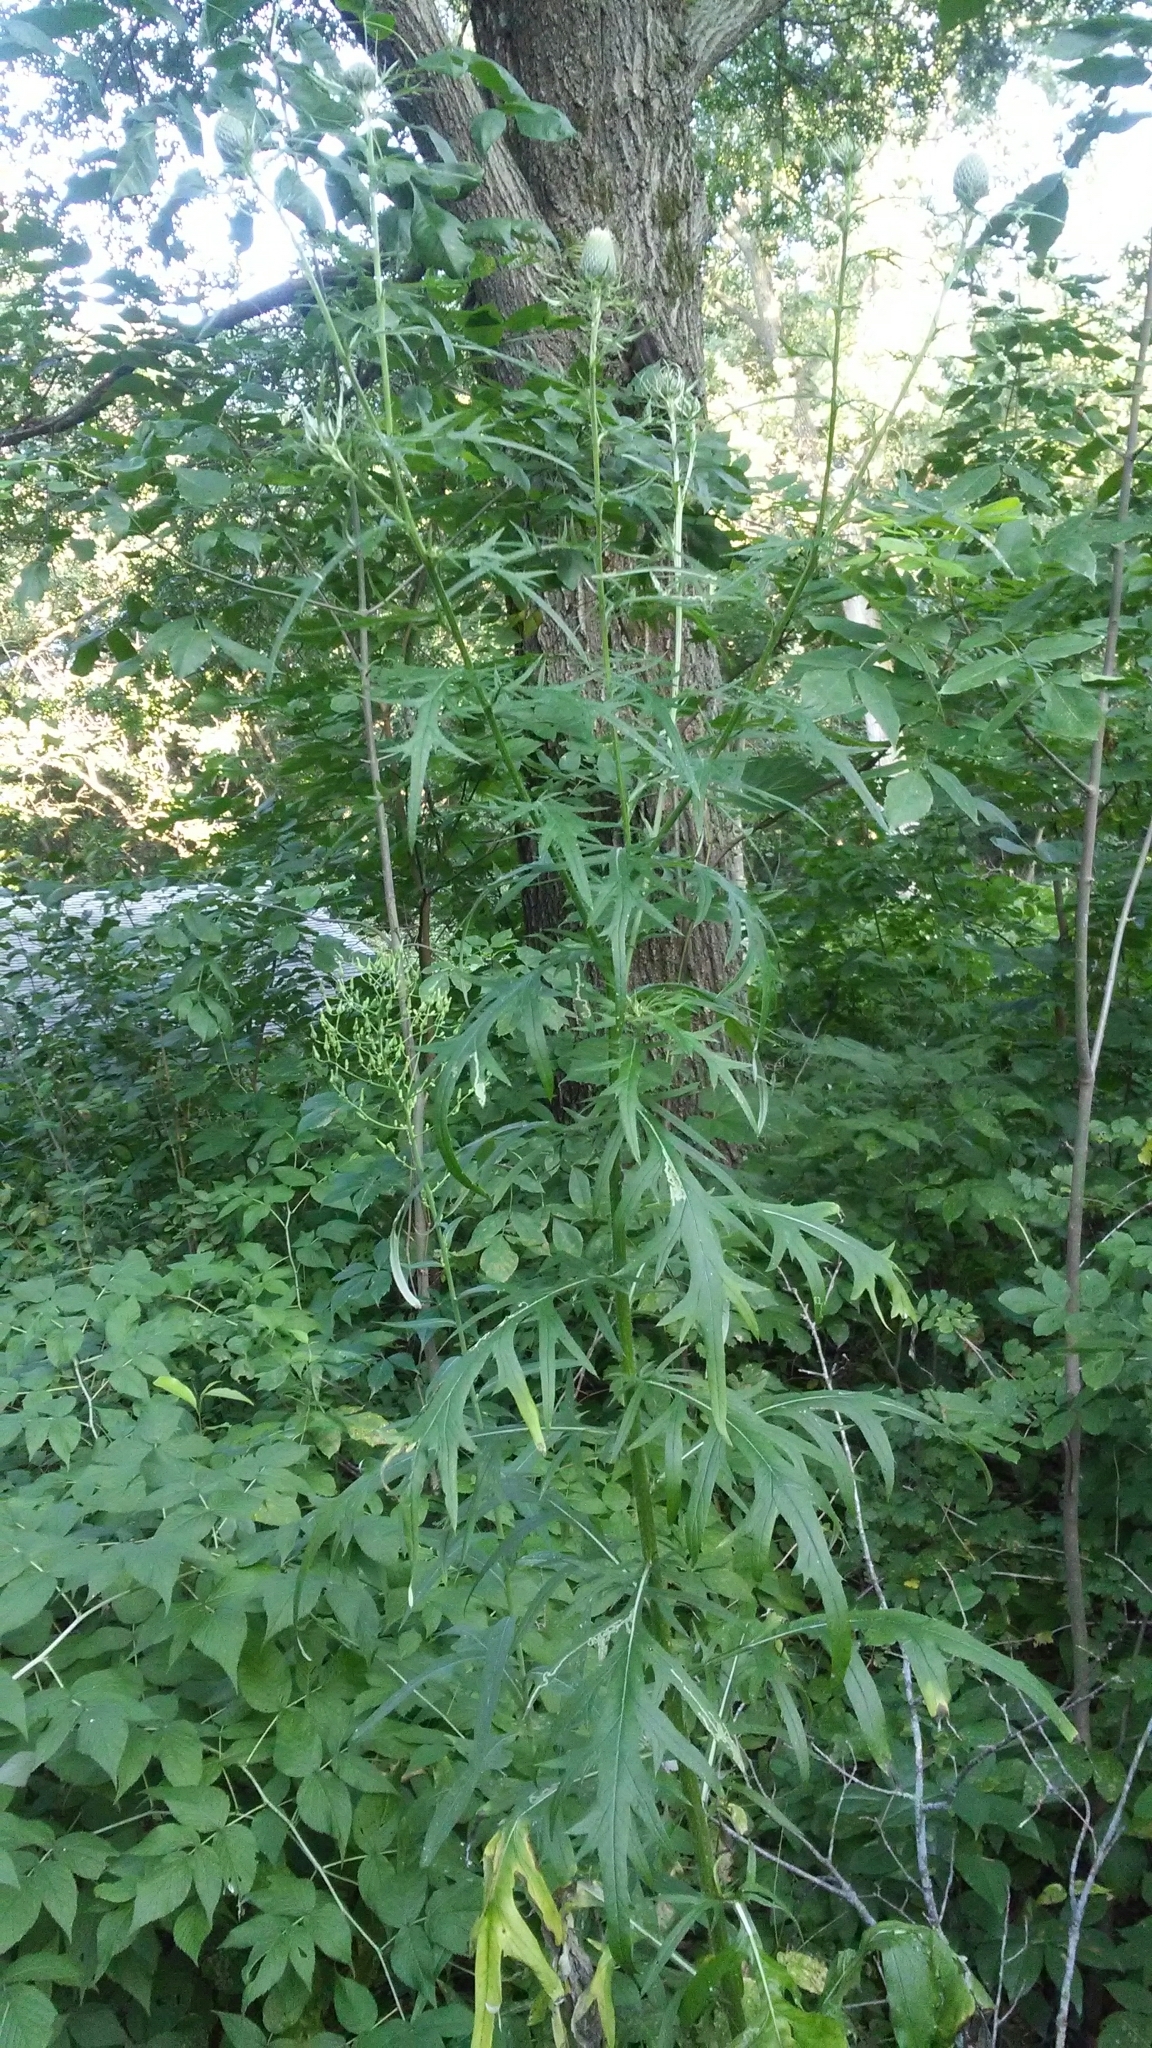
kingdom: Plantae
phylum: Tracheophyta
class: Magnoliopsida
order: Asterales
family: Asteraceae
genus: Cirsium
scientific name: Cirsium discolor
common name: Field thistle
